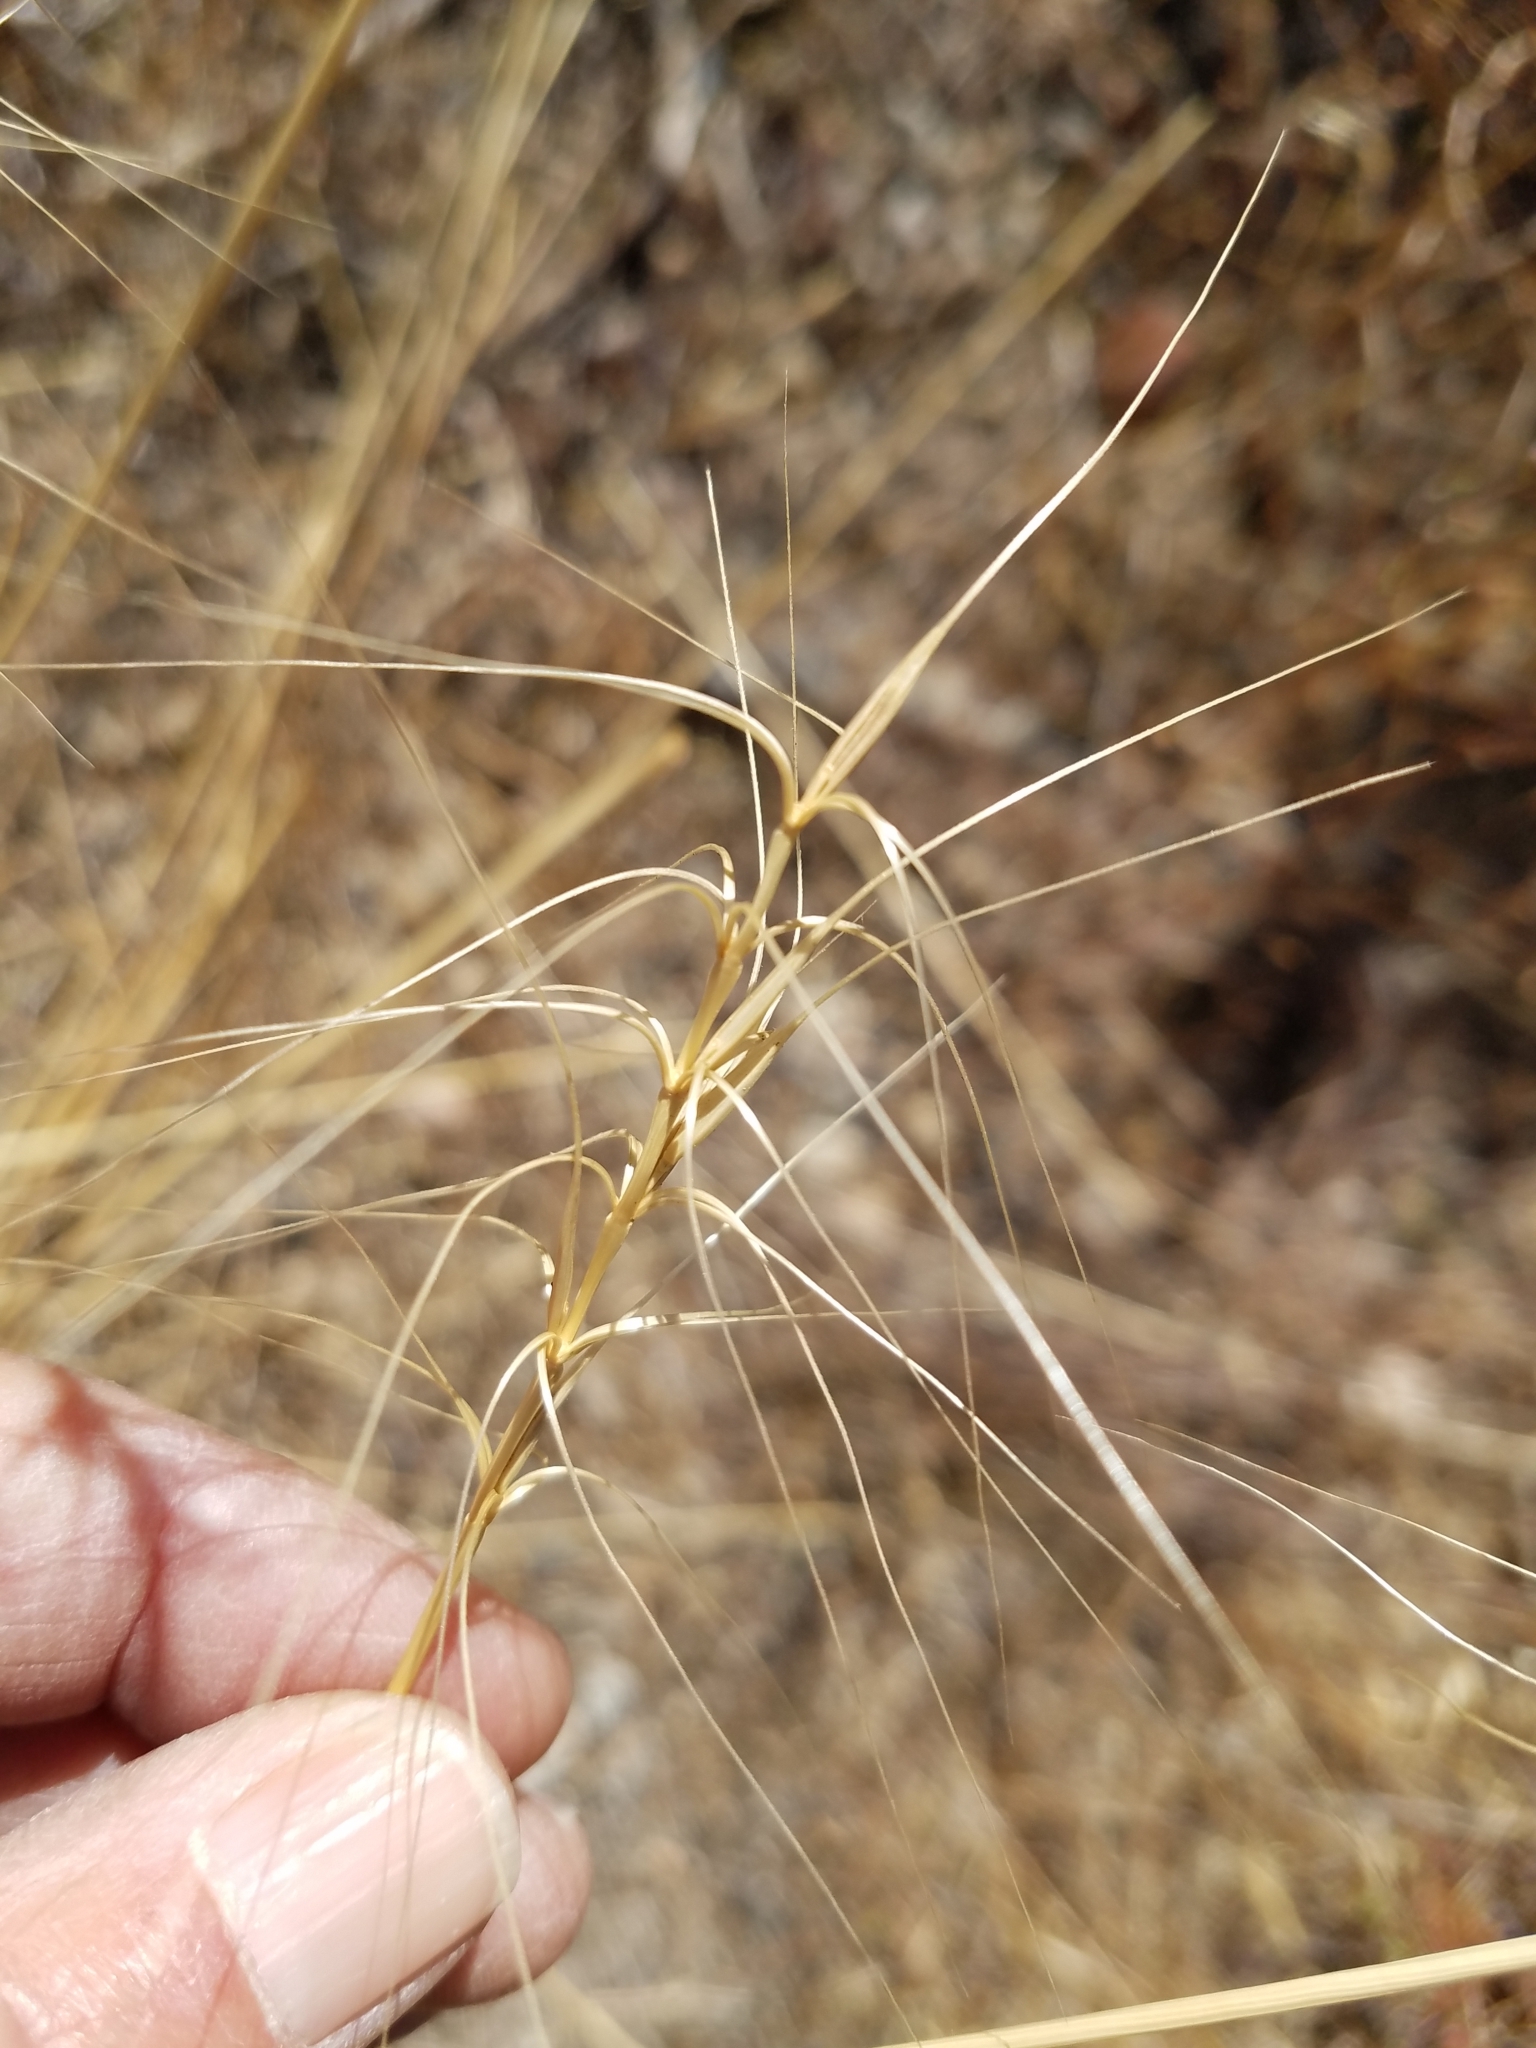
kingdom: Plantae
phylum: Tracheophyta
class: Liliopsida
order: Poales
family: Poaceae
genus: Elymus
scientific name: Elymus elymoides
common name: Bottlebrush squirreltail
